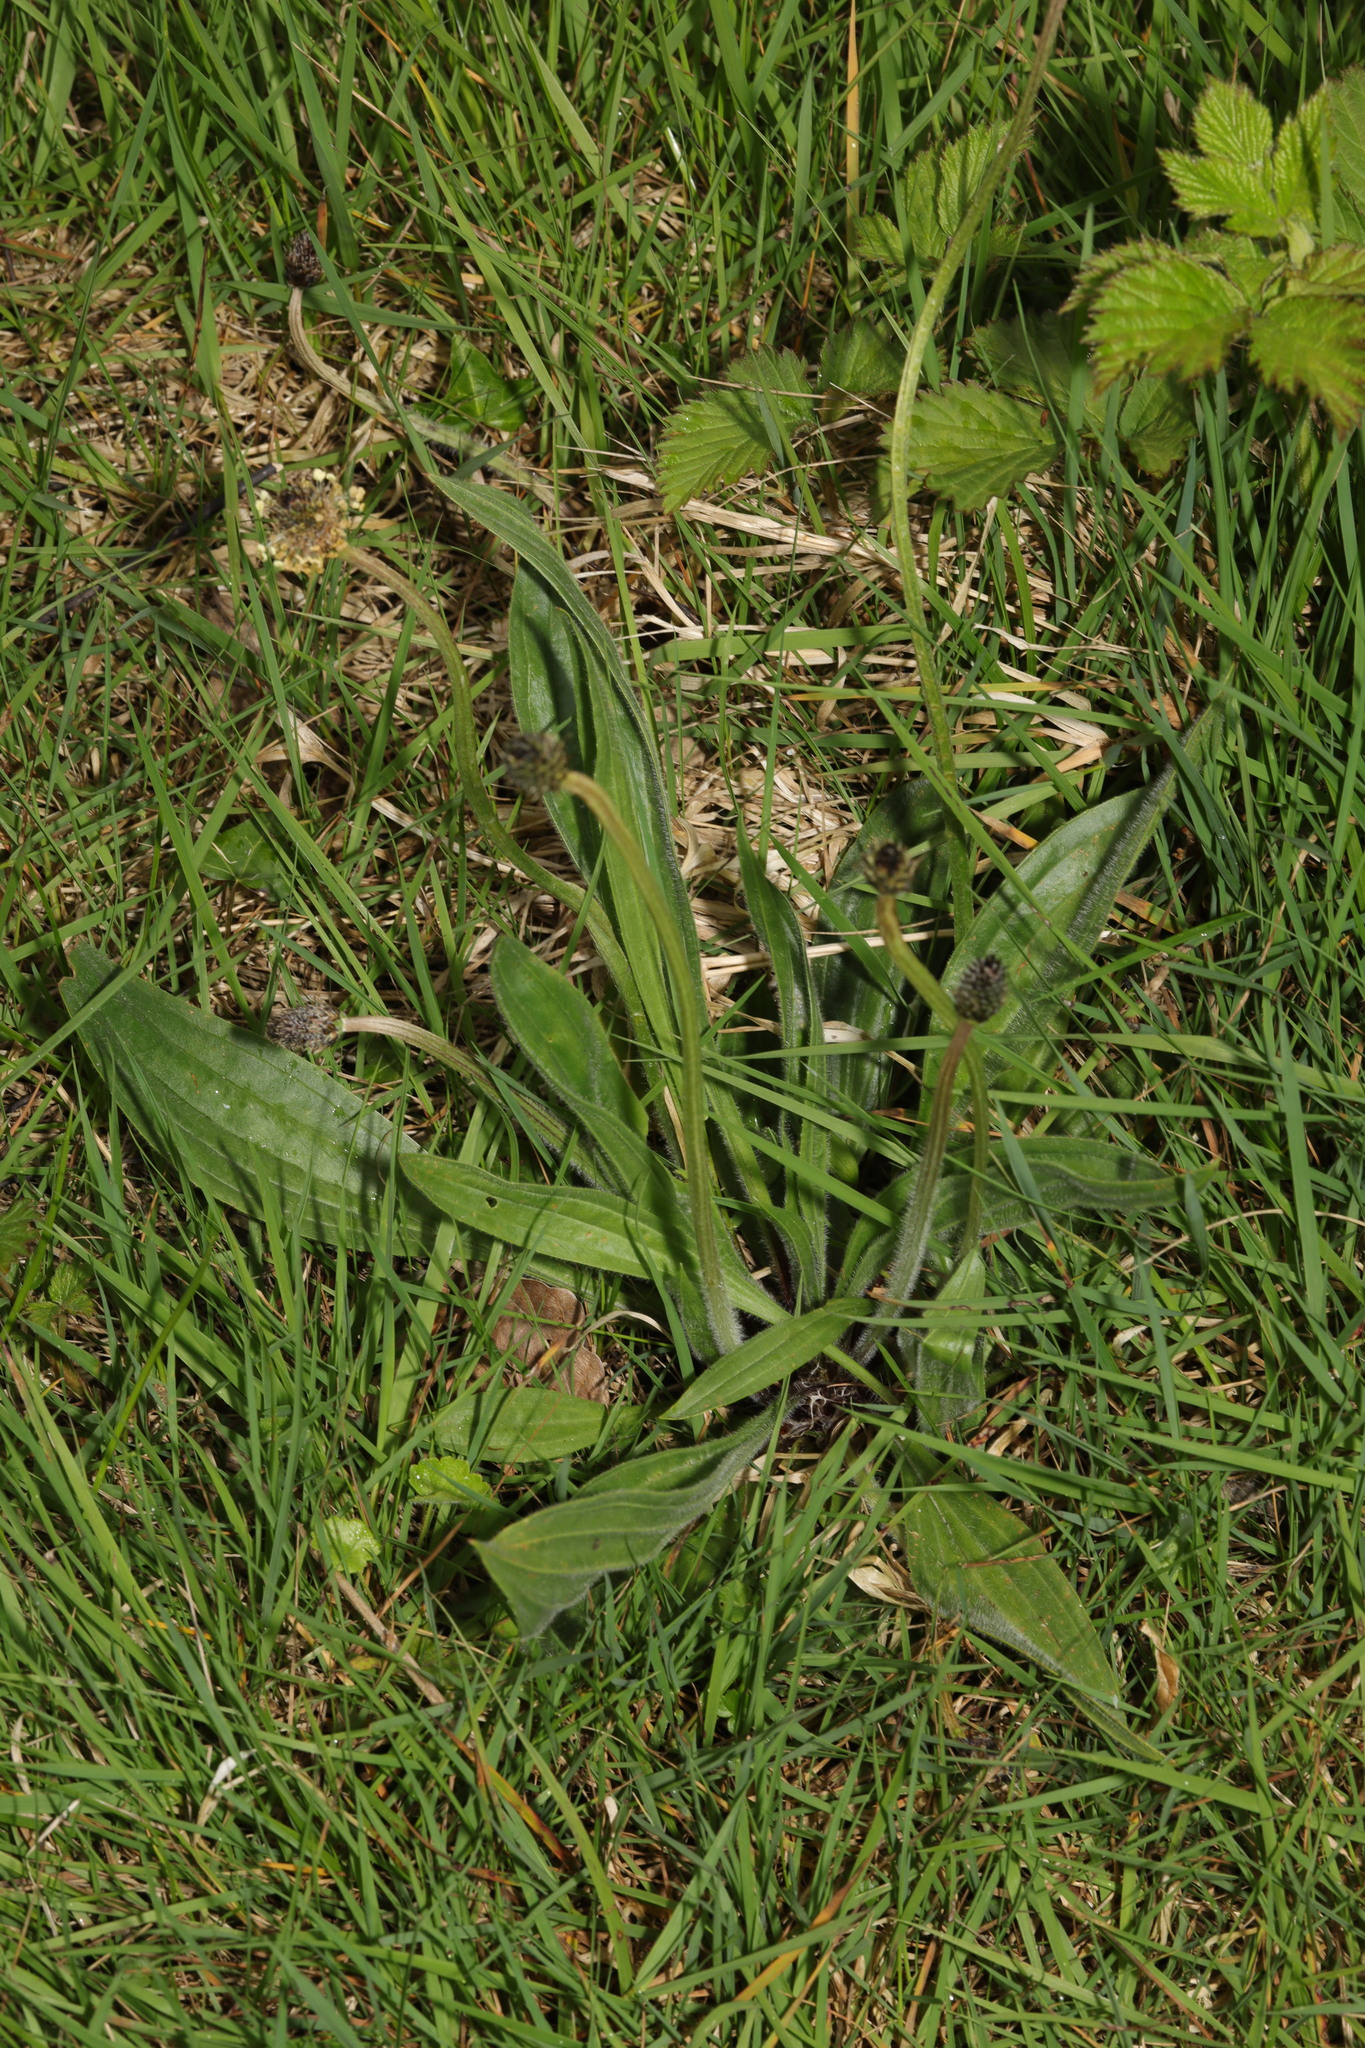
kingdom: Plantae
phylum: Tracheophyta
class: Magnoliopsida
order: Lamiales
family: Plantaginaceae
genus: Plantago
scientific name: Plantago lanceolata
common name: Ribwort plantain
